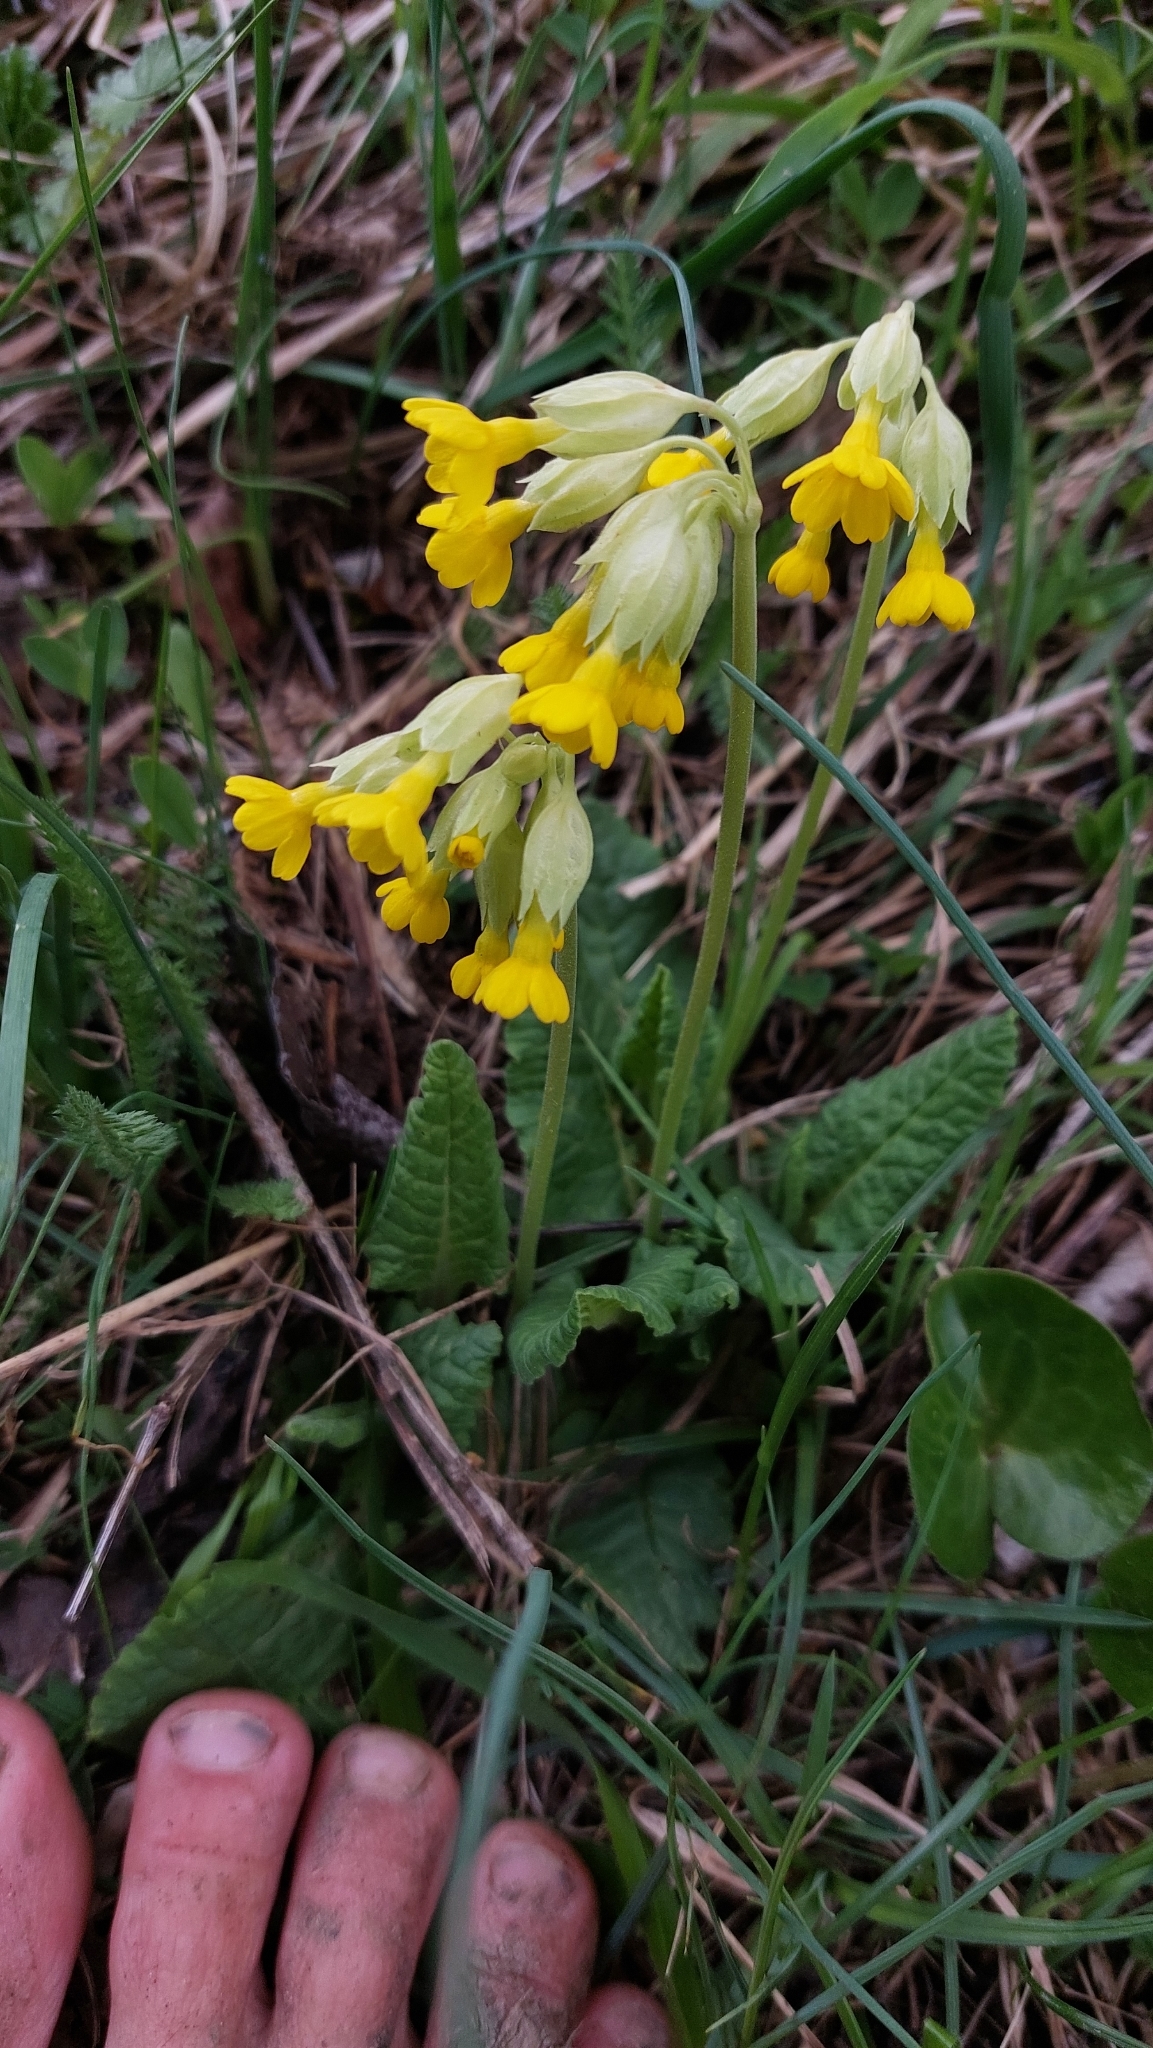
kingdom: Plantae
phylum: Tracheophyta
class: Magnoliopsida
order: Ericales
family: Primulaceae
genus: Primula
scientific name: Primula veris
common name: Cowslip
